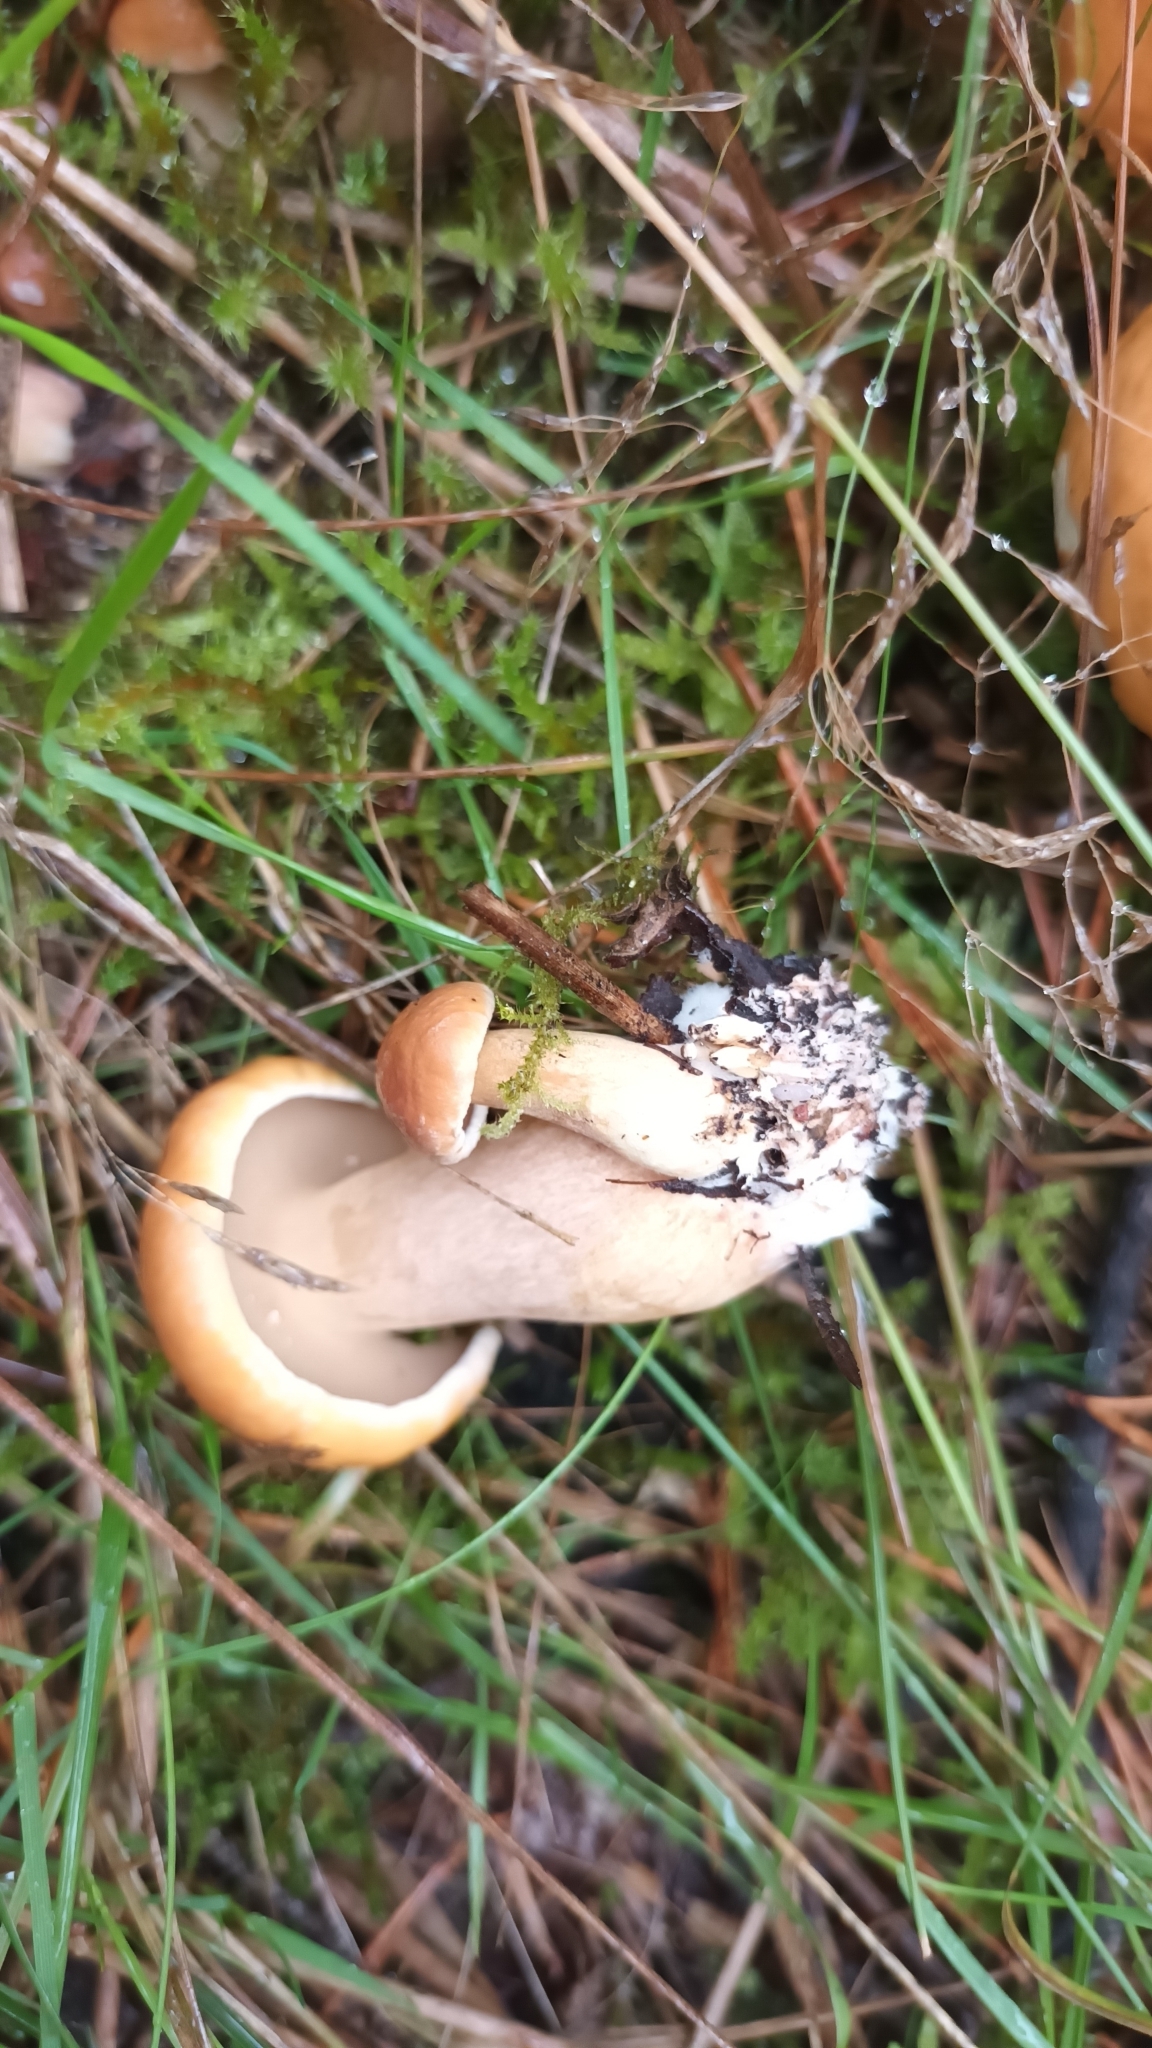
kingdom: Fungi
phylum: Basidiomycota
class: Agaricomycetes
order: Boletales
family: Suillaceae
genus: Suillus
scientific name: Suillus bovinus
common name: Bovine bolete
